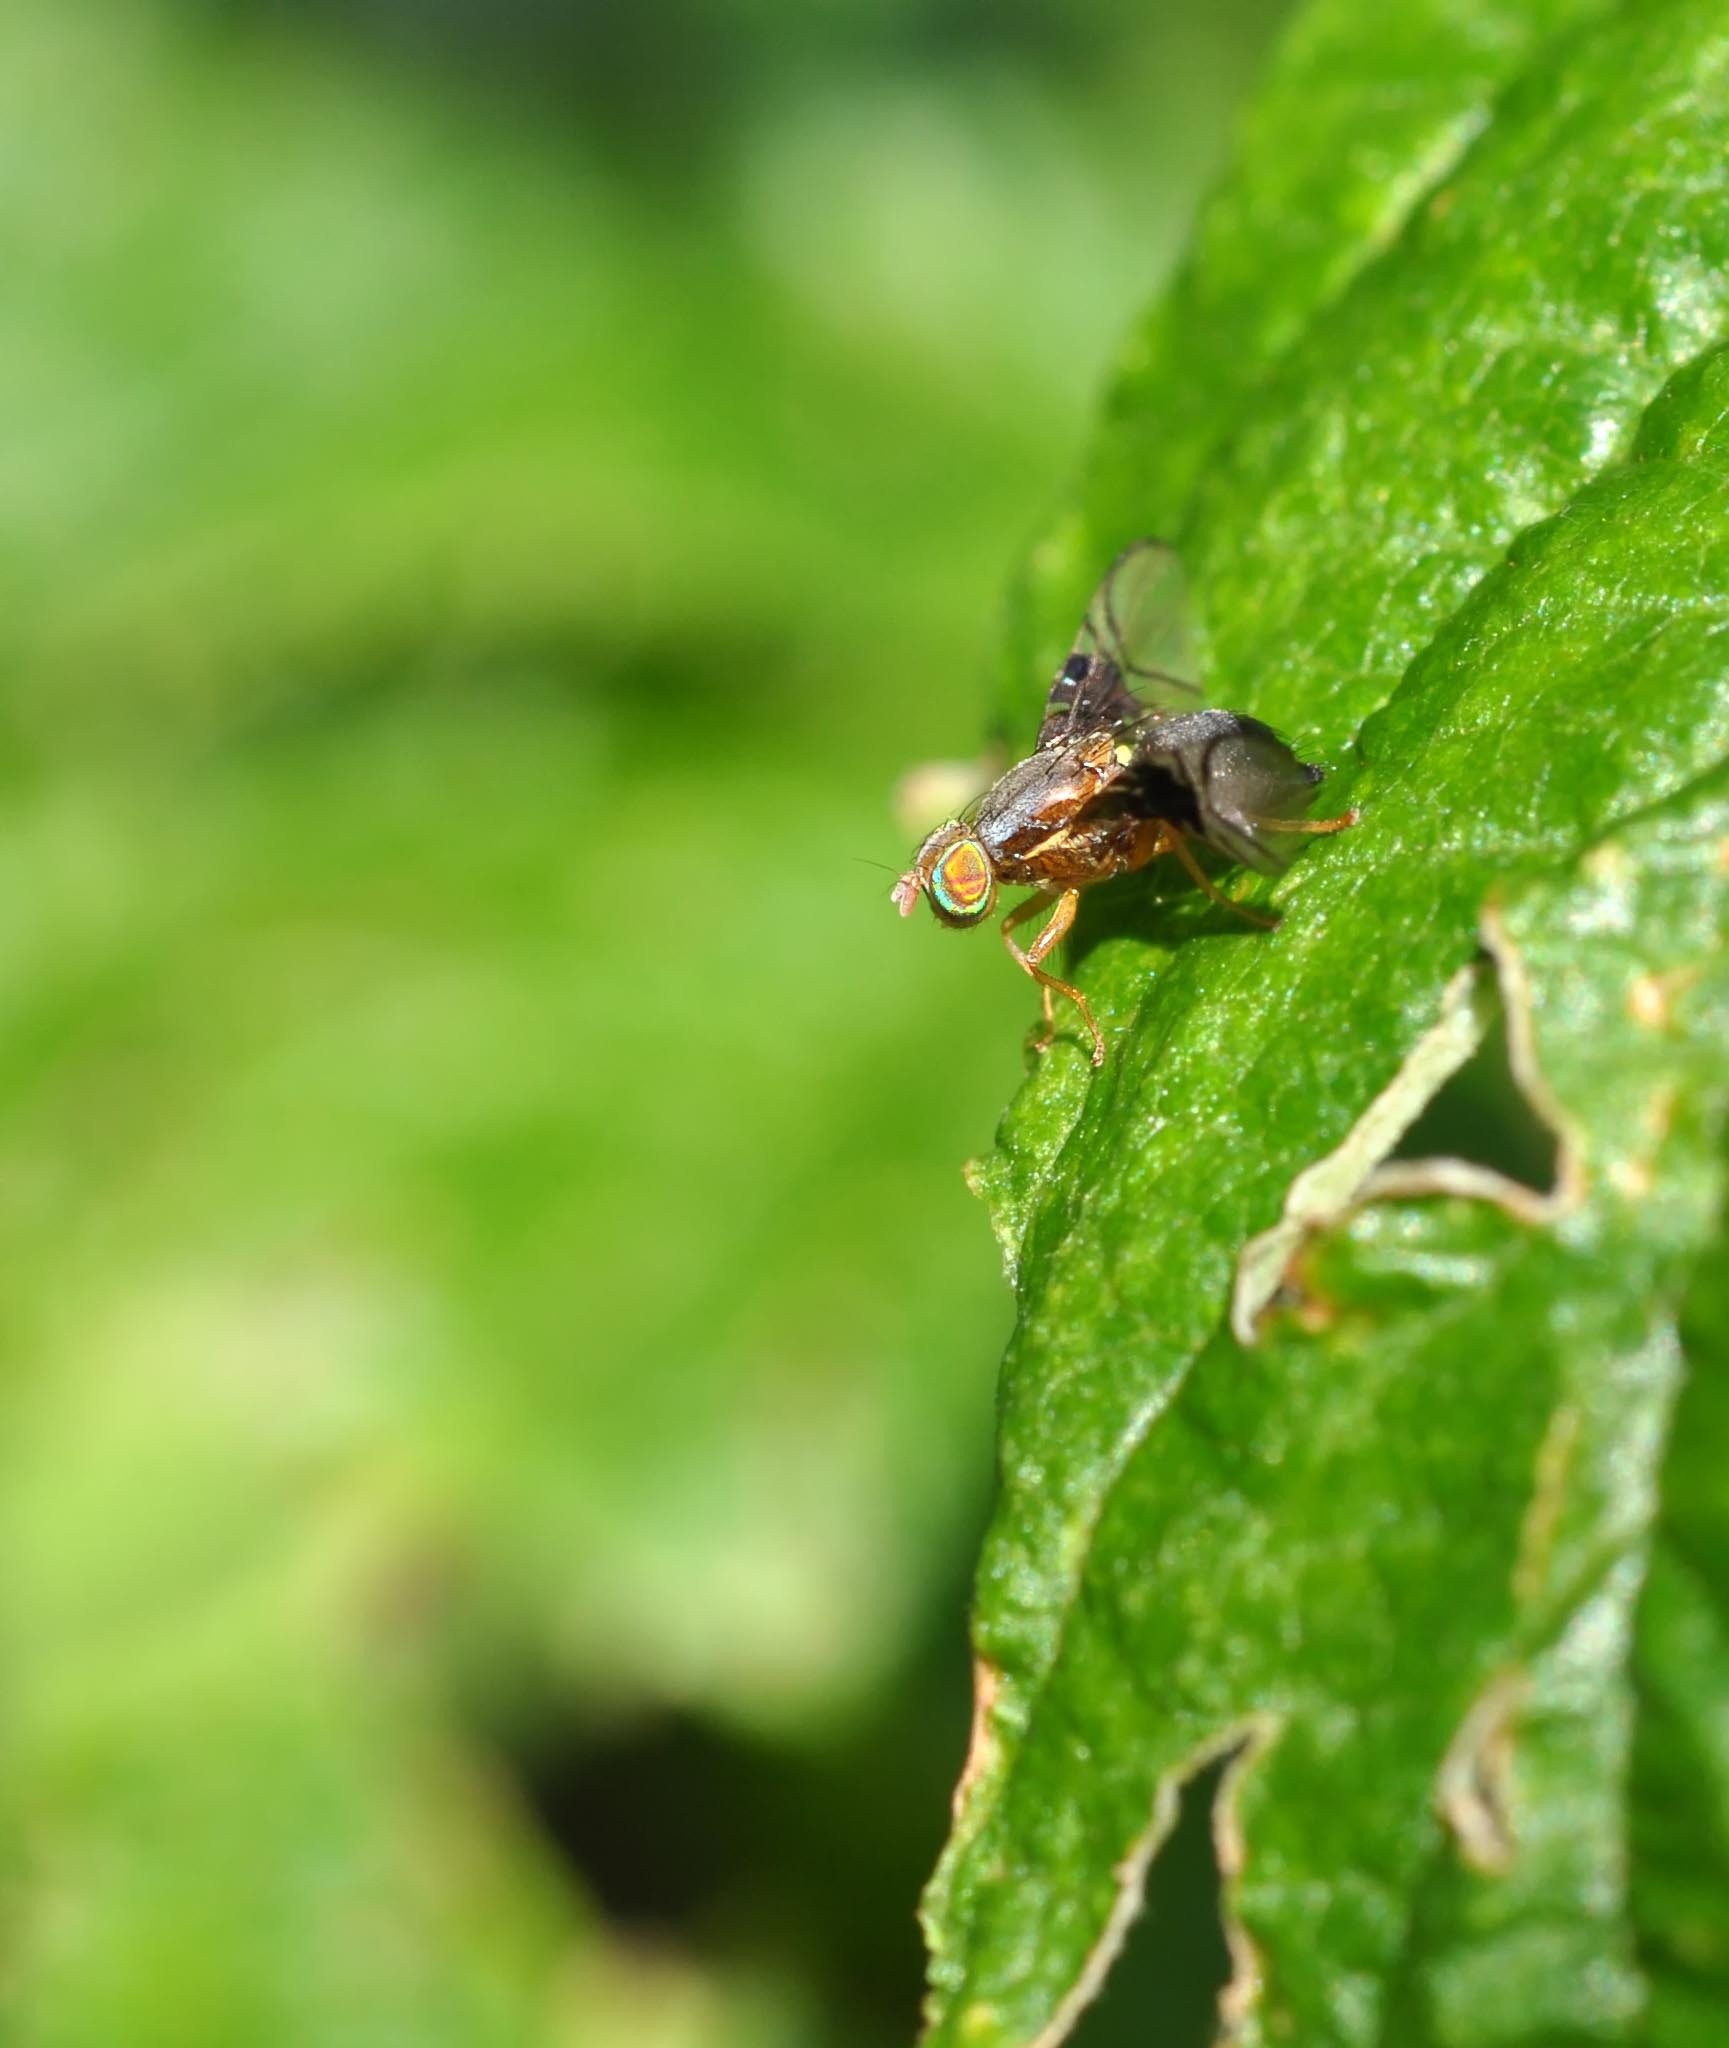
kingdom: Animalia
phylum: Arthropoda
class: Insecta
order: Diptera
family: Tephritidae
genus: Anomoia
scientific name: Anomoia purmunda
